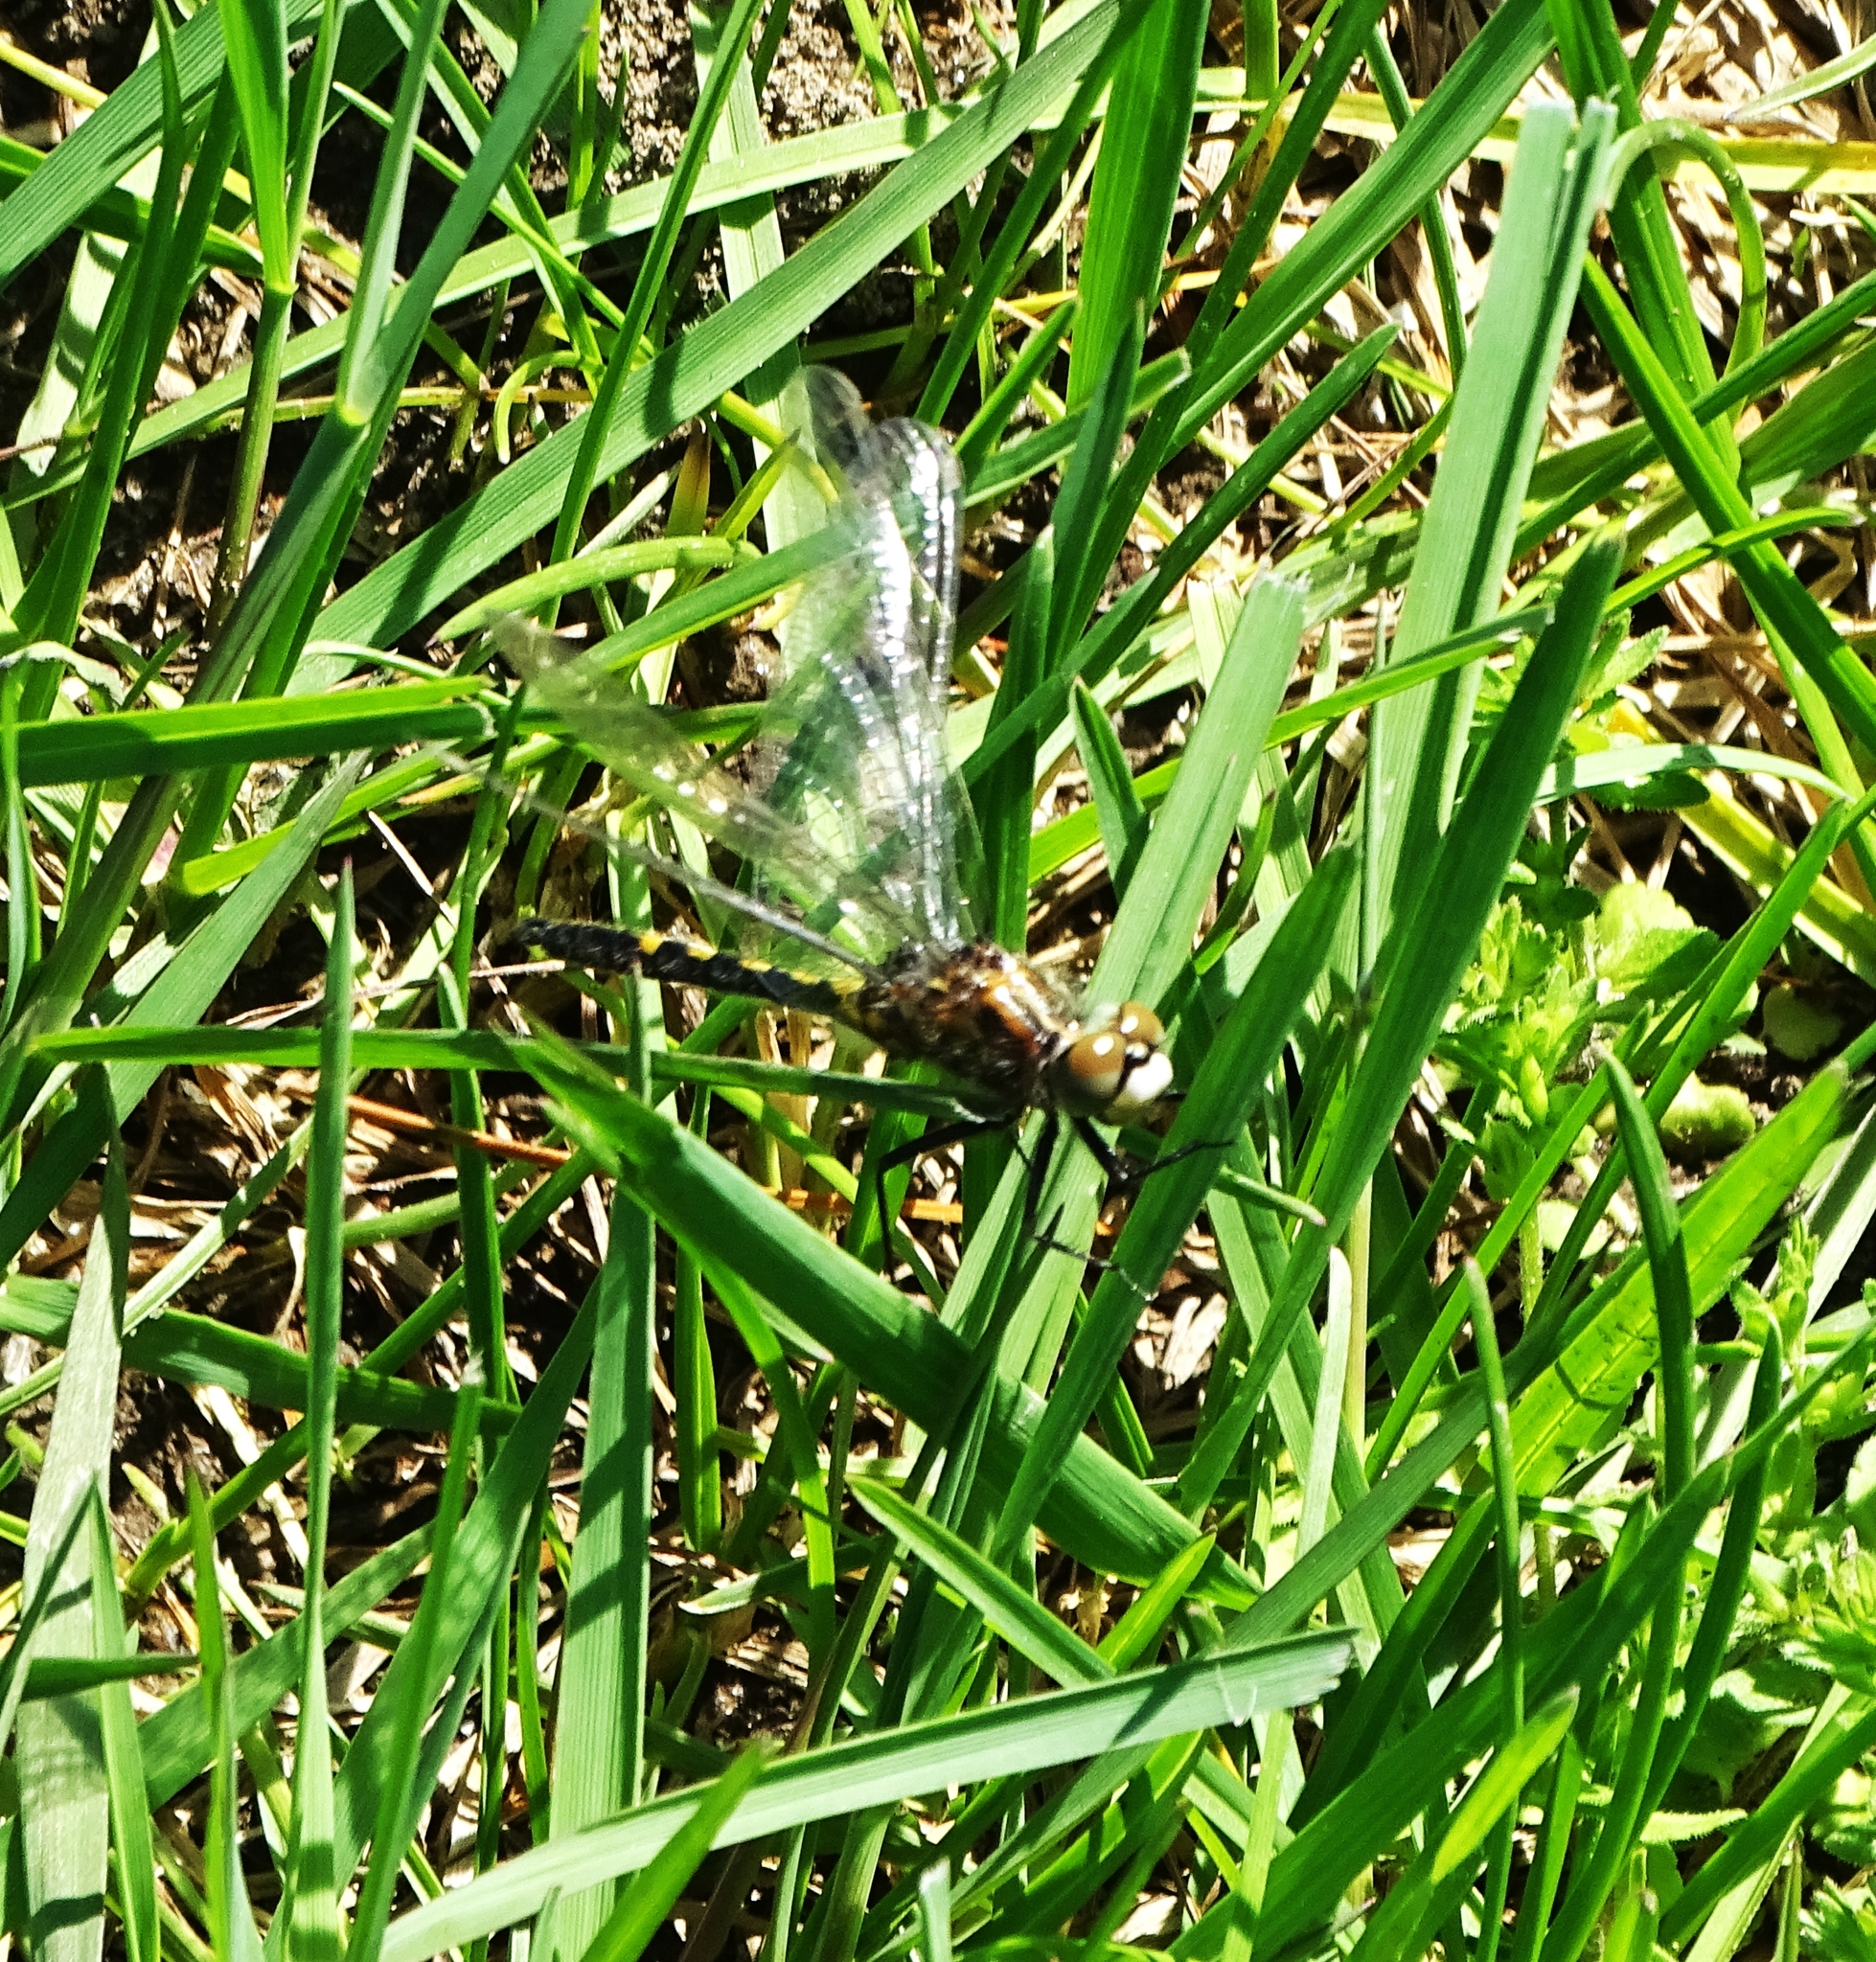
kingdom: Animalia
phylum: Arthropoda
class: Insecta
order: Odonata
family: Libellulidae
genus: Leucorrhinia
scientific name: Leucorrhinia intacta
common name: Dot-tailed whiteface
